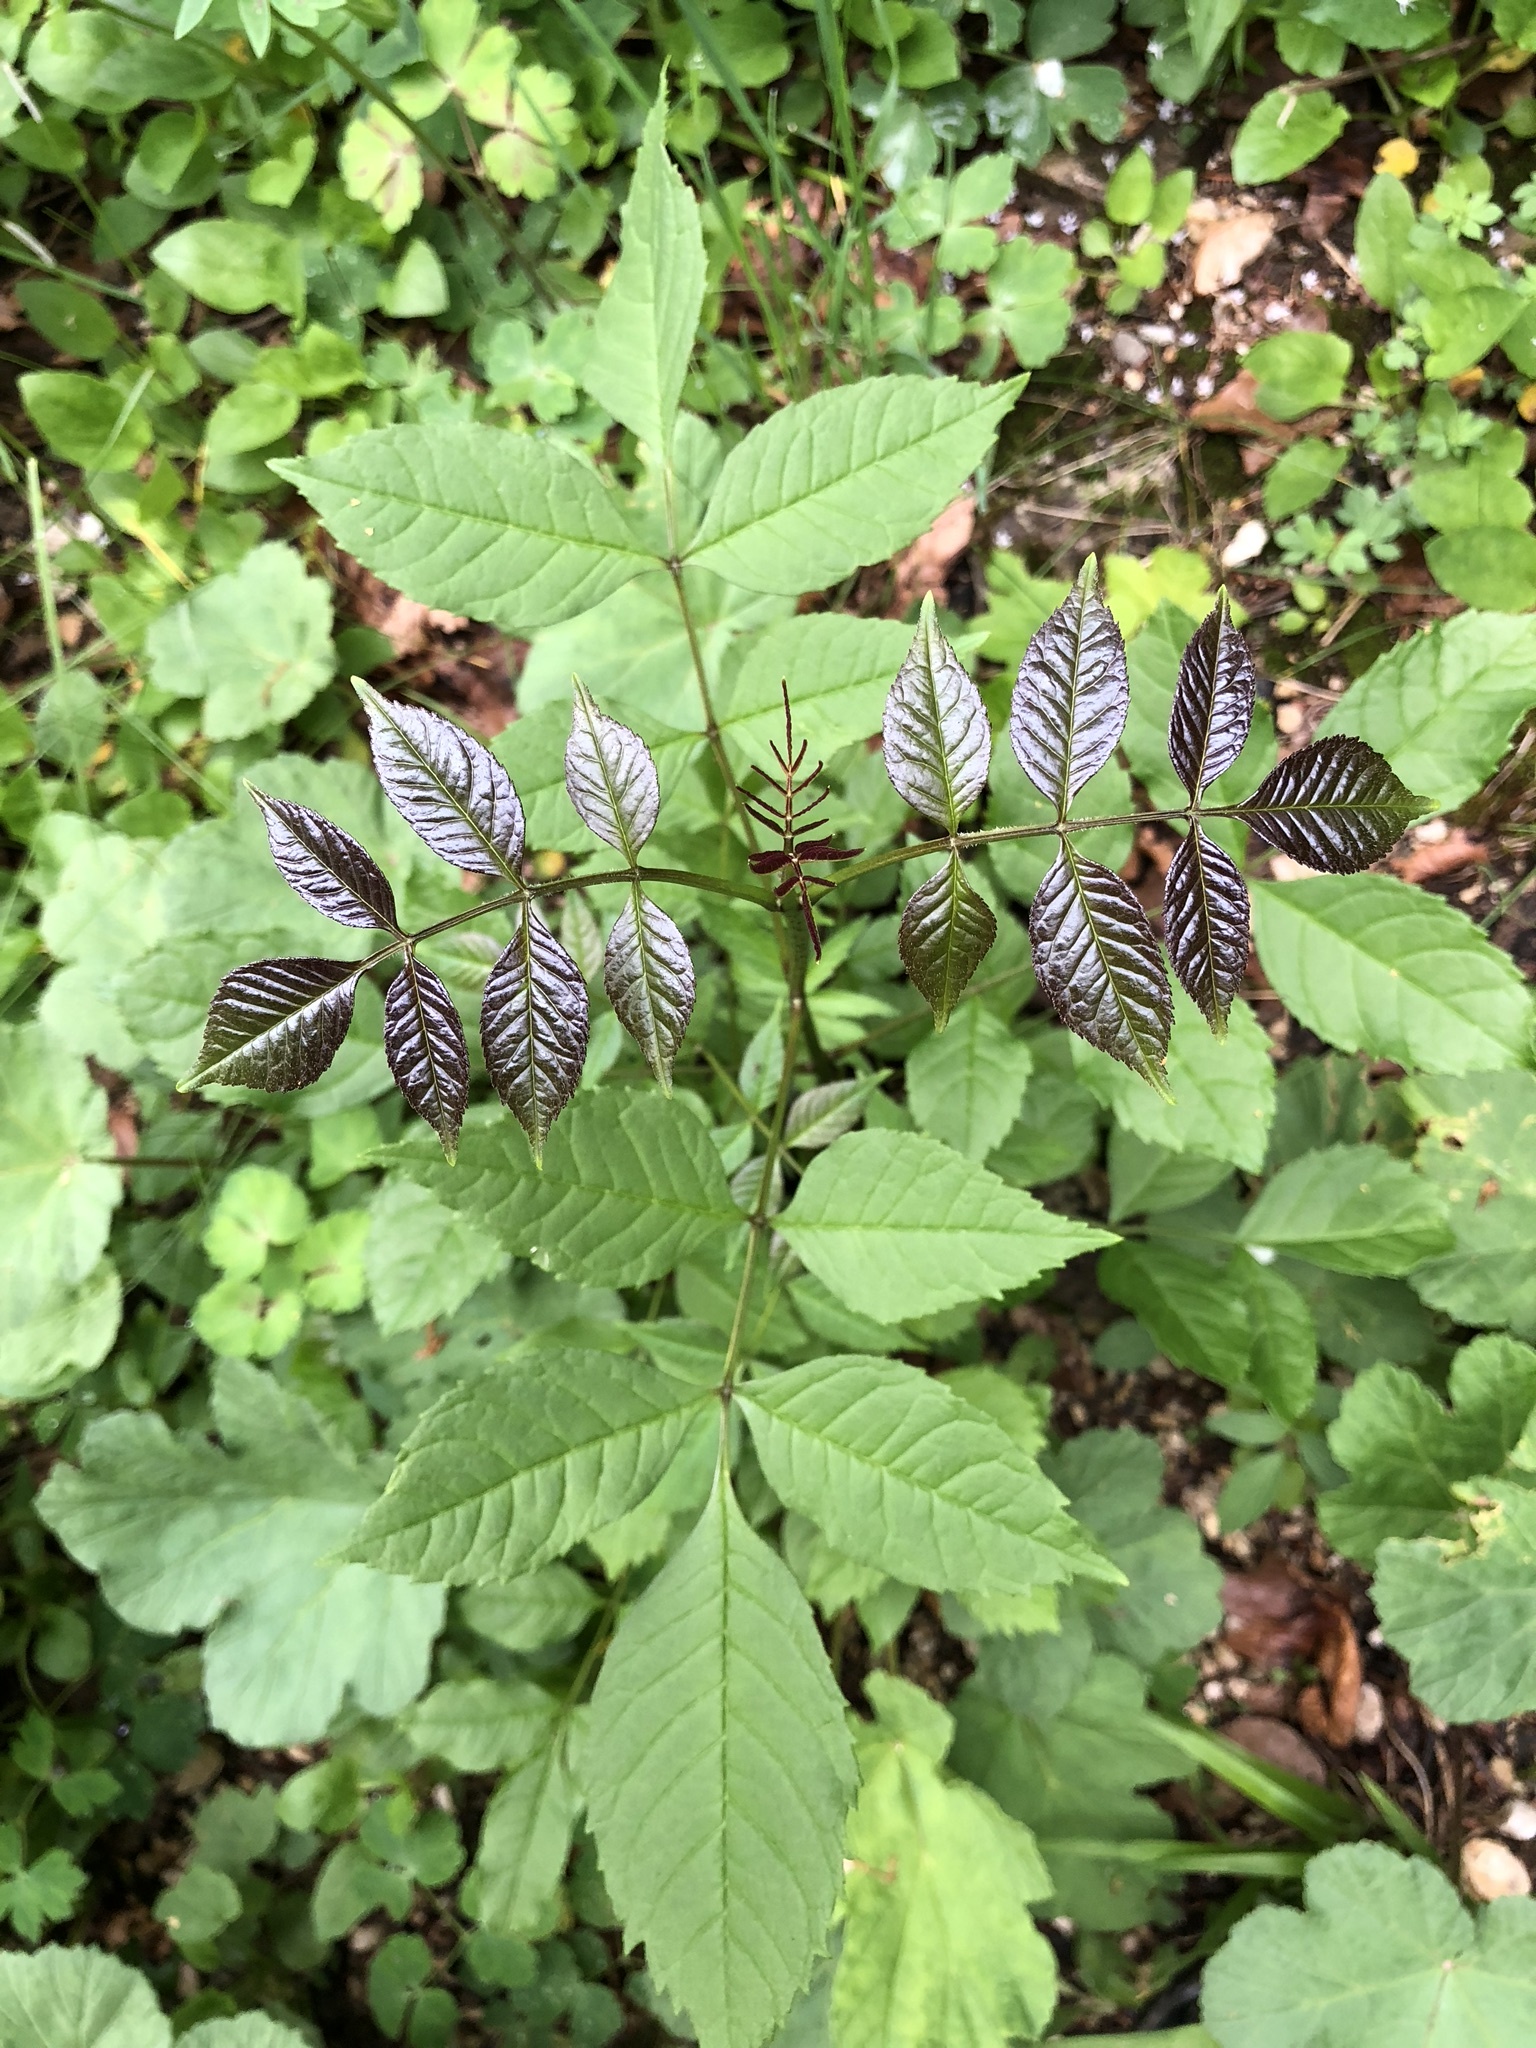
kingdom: Plantae
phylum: Tracheophyta
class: Magnoliopsida
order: Lamiales
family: Oleaceae
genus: Fraxinus
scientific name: Fraxinus excelsior
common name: European ash
